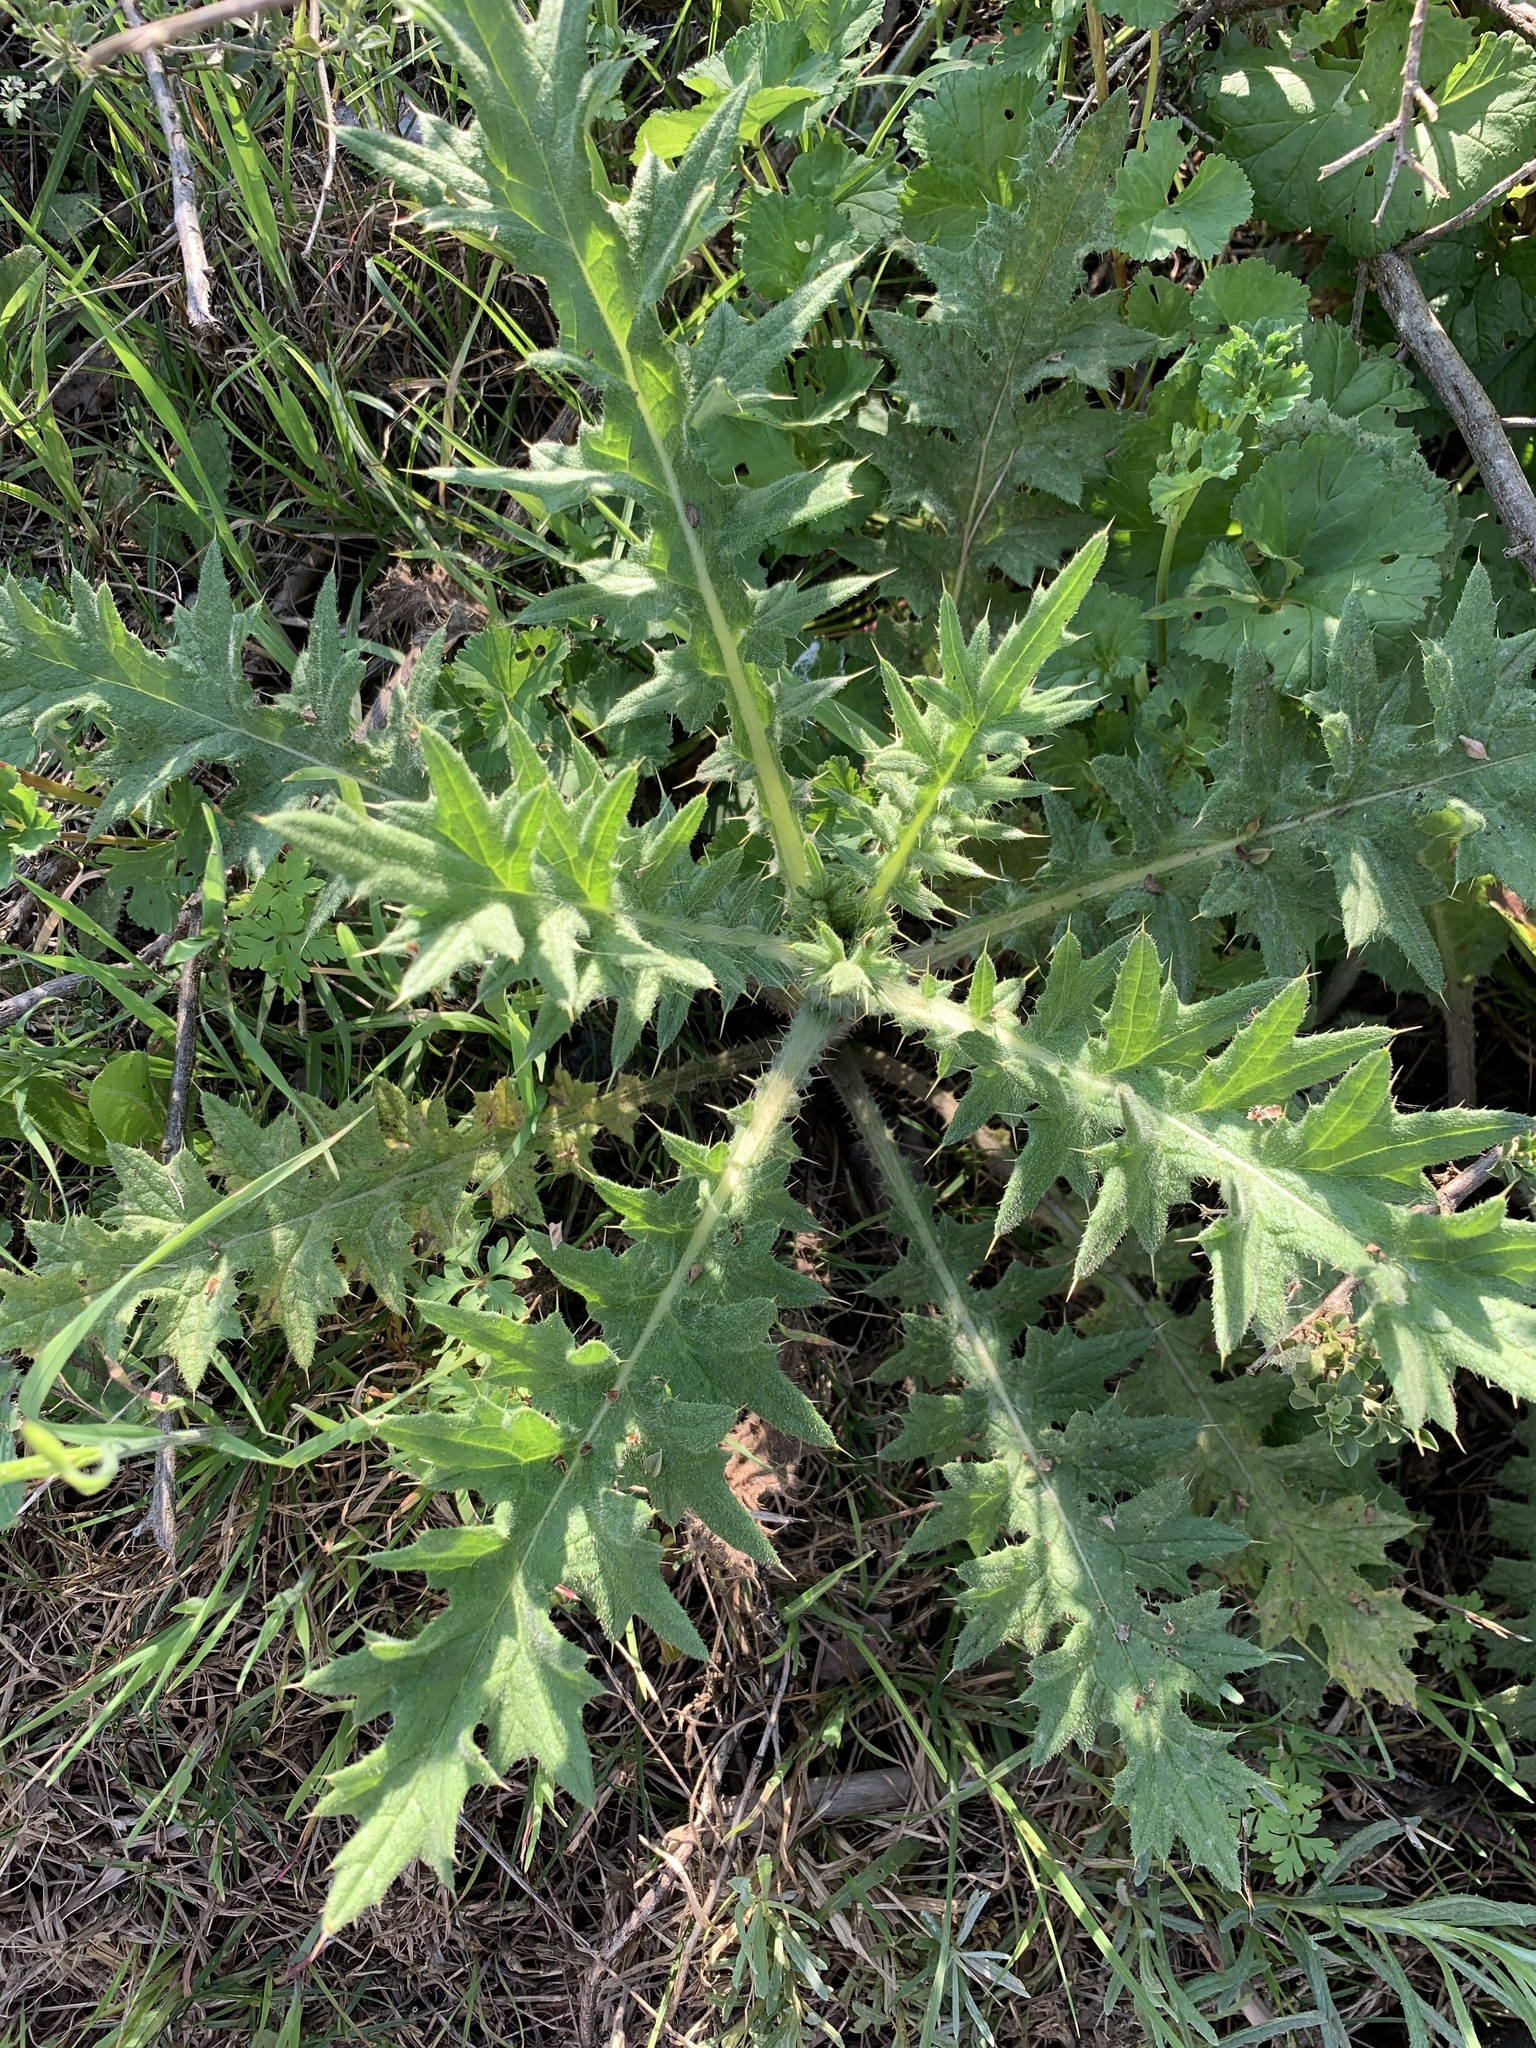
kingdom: Plantae
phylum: Tracheophyta
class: Magnoliopsida
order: Asterales
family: Asteraceae
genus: Cirsium
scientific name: Cirsium vulgare
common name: Bull thistle
